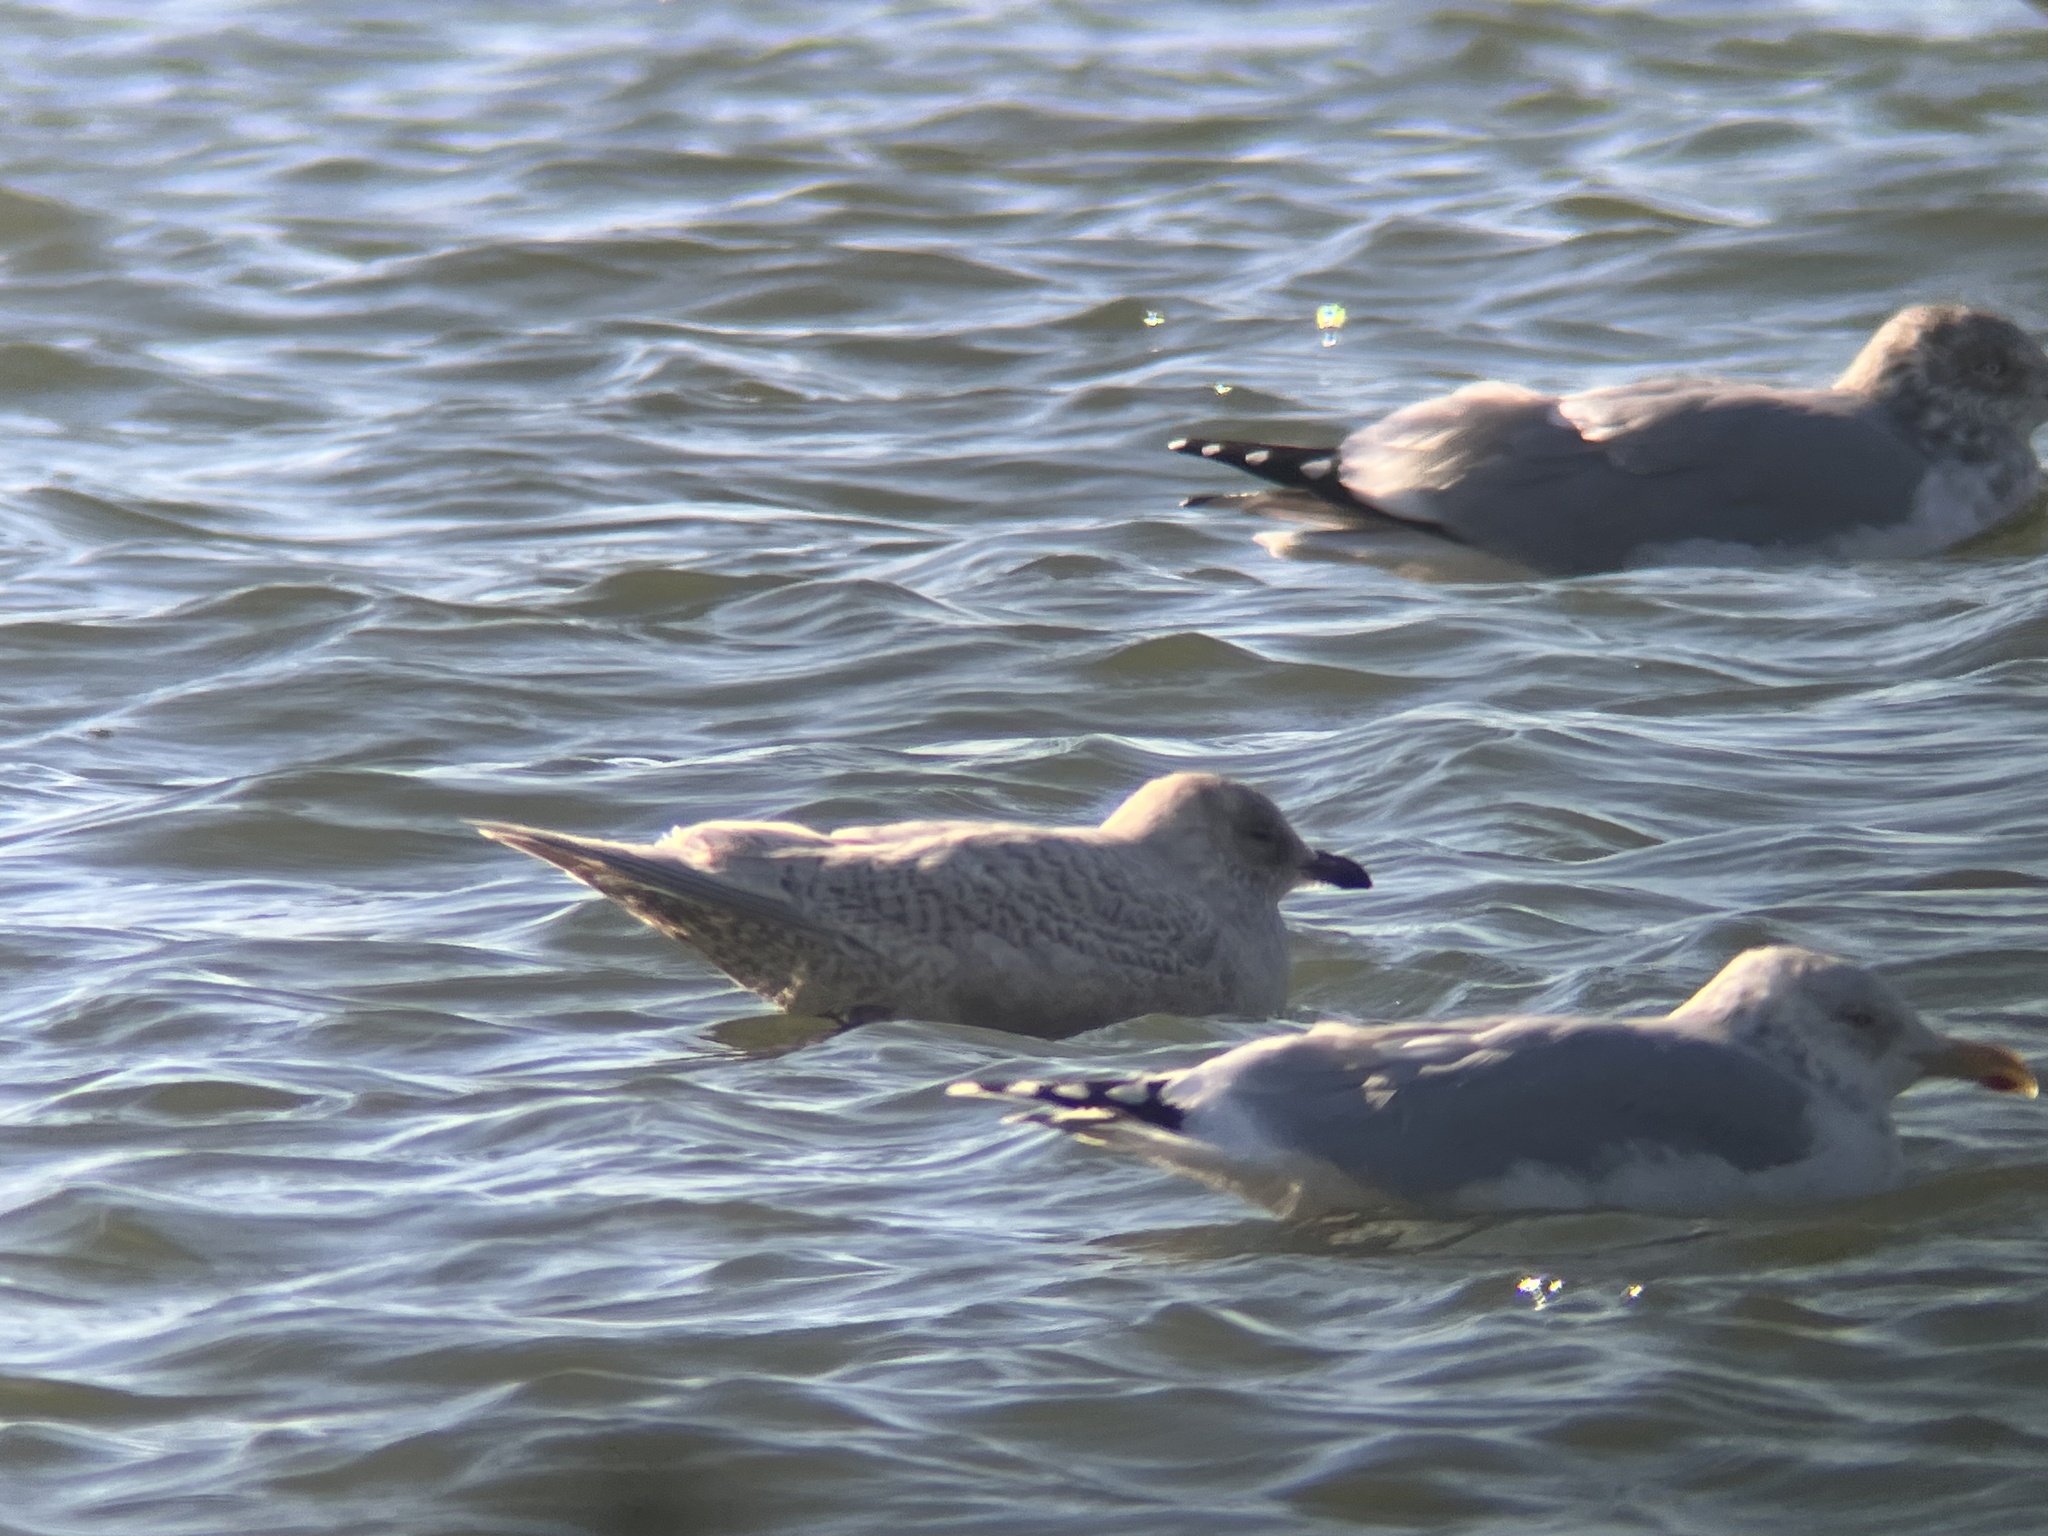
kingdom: Animalia
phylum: Chordata
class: Aves
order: Charadriiformes
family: Laridae
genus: Larus
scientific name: Larus glaucoides
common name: Iceland gull
